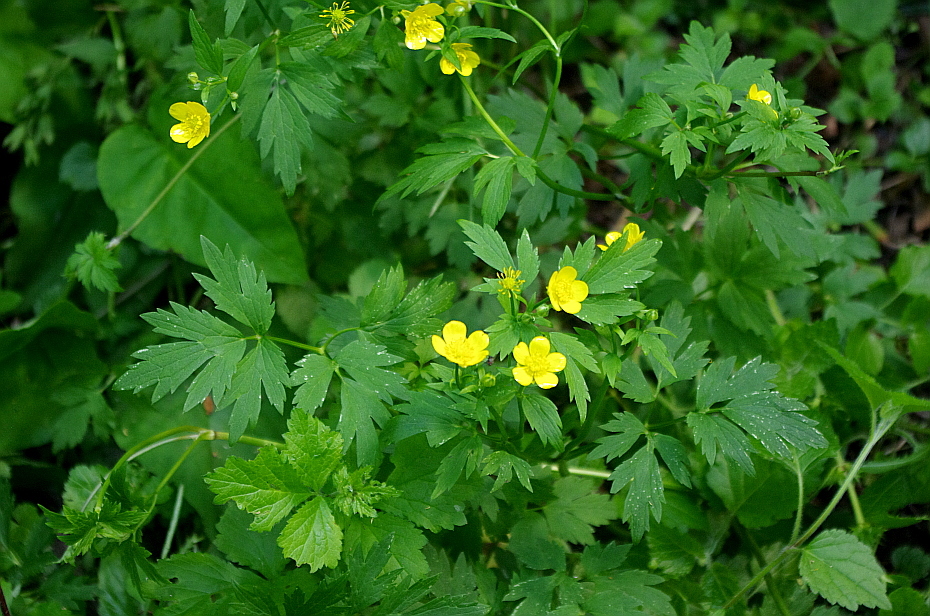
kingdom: Plantae
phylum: Tracheophyta
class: Magnoliopsida
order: Ranunculales
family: Ranunculaceae
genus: Ranunculus
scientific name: Ranunculus repens
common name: Creeping buttercup
